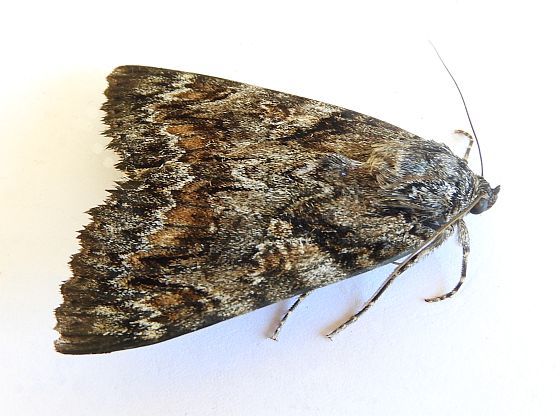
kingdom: Animalia
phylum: Arthropoda
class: Insecta
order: Lepidoptera
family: Erebidae
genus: Catocala
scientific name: Catocala aholibah
